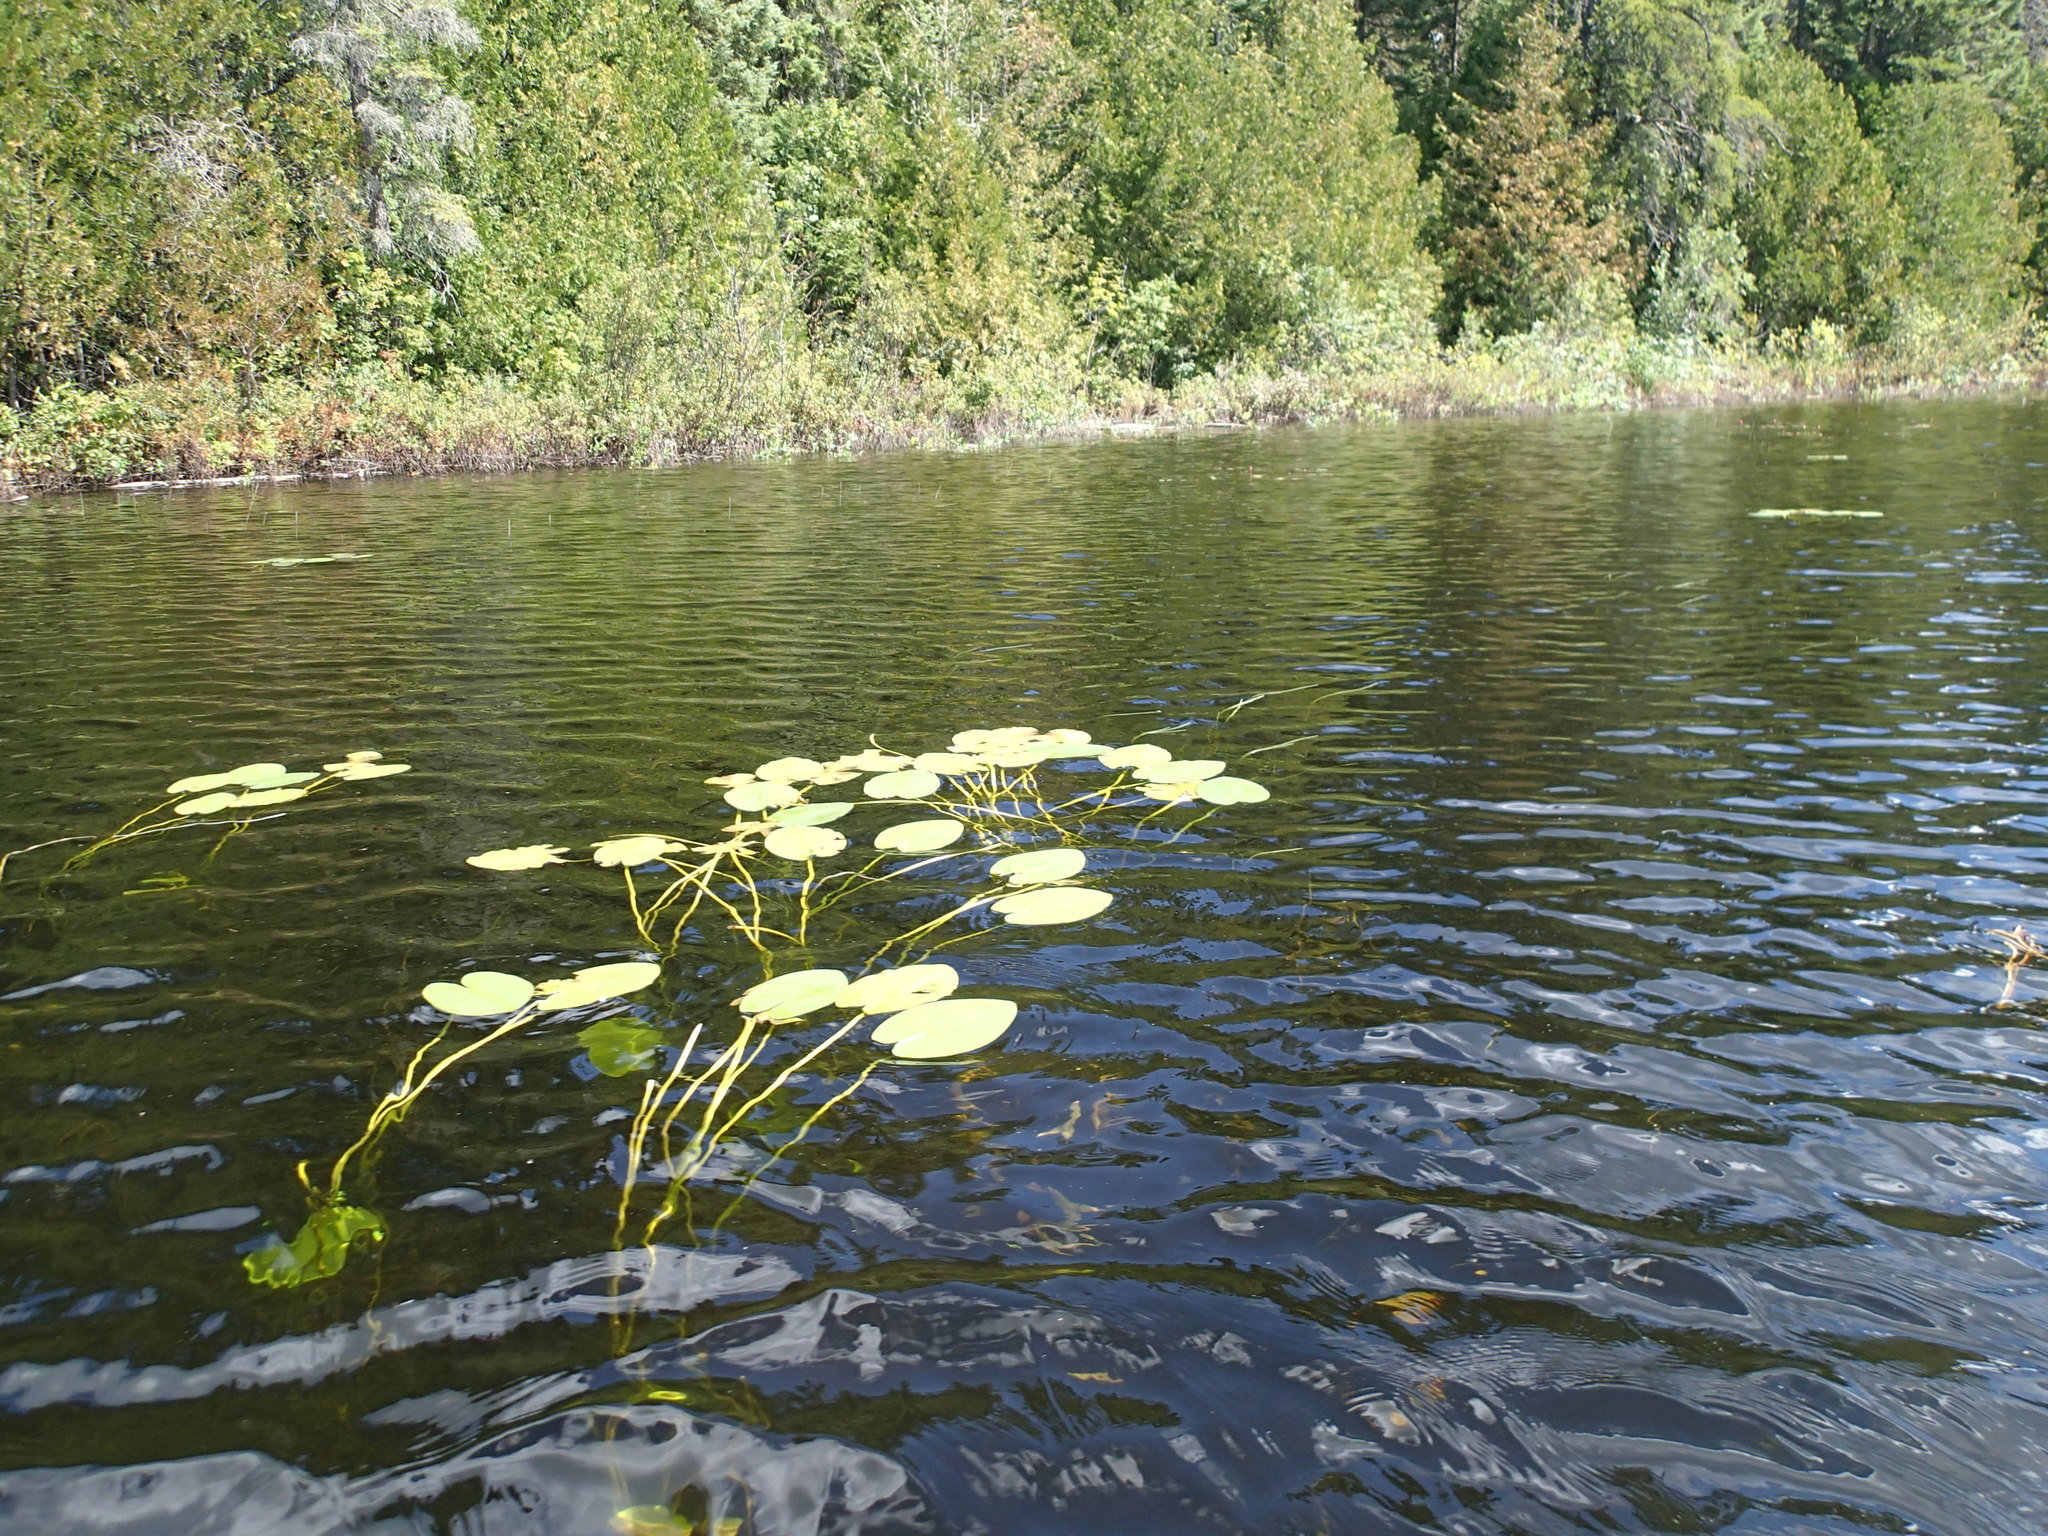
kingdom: Plantae
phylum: Tracheophyta
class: Magnoliopsida
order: Nymphaeales
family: Nymphaeaceae
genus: Nuphar
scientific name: Nuphar variegata
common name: Beaver-root
